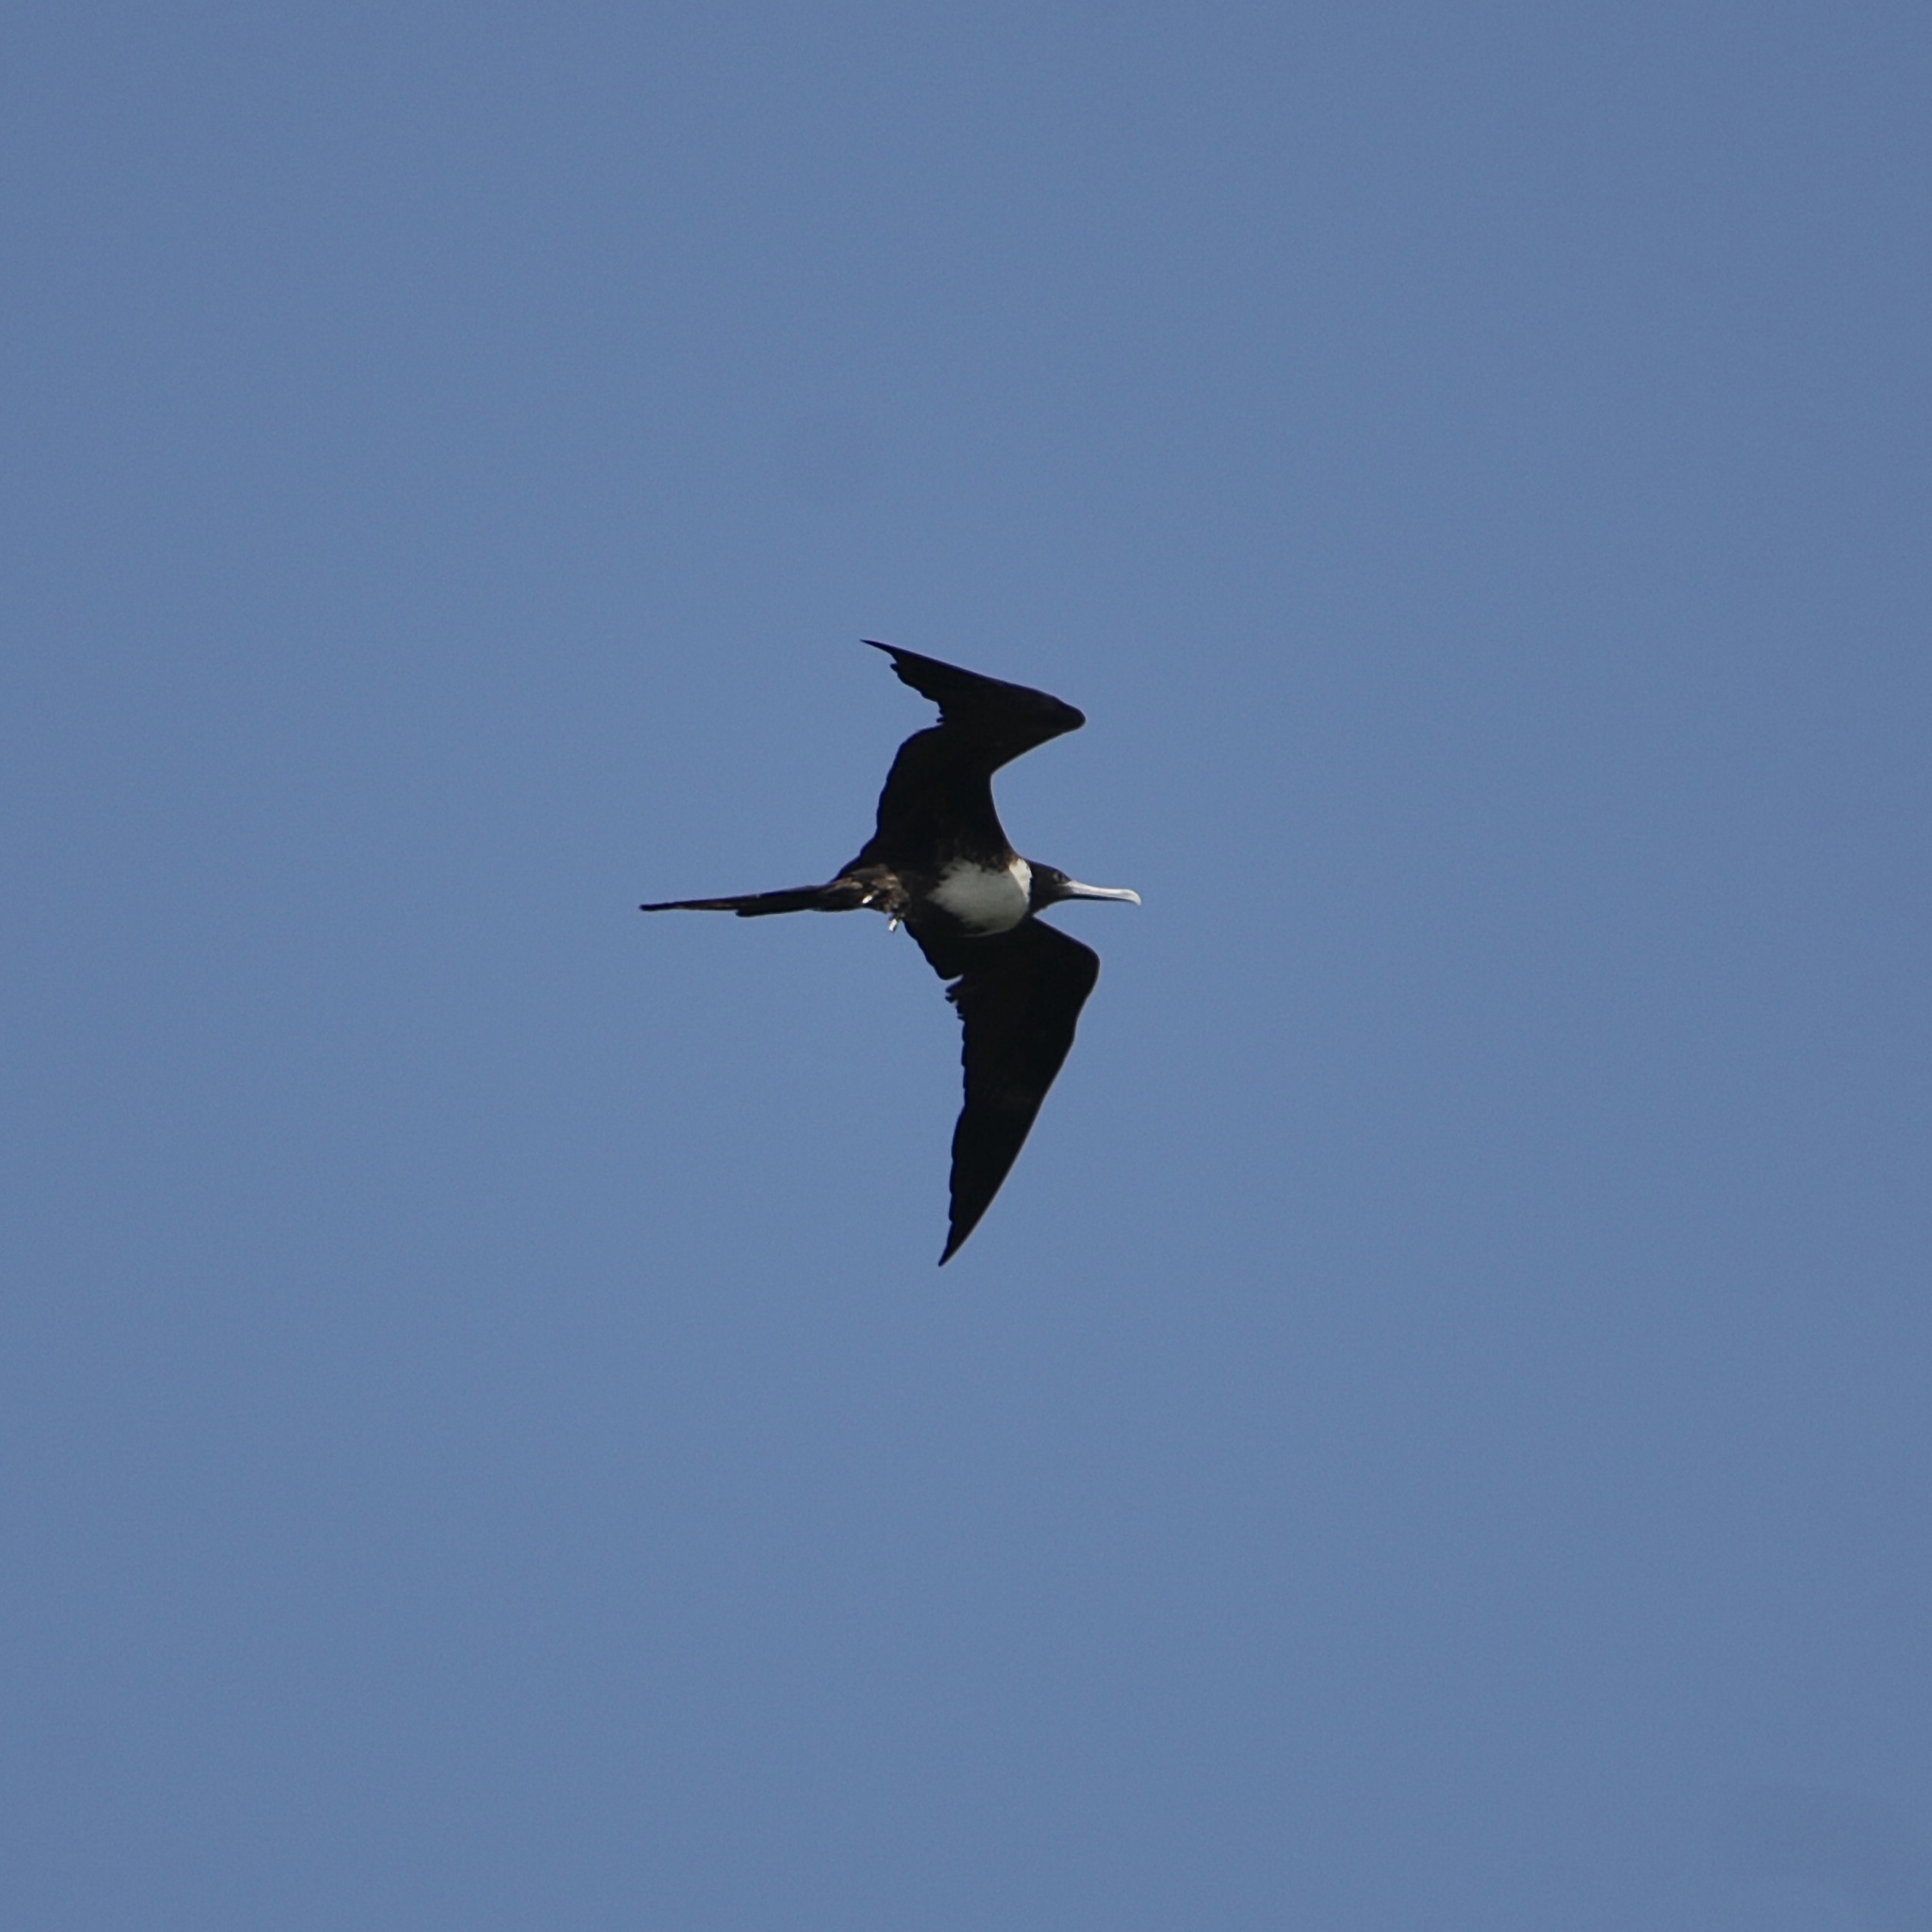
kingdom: Animalia
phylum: Chordata
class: Aves
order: Suliformes
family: Fregatidae
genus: Fregata
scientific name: Fregata magnificens
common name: Magnificent frigatebird
